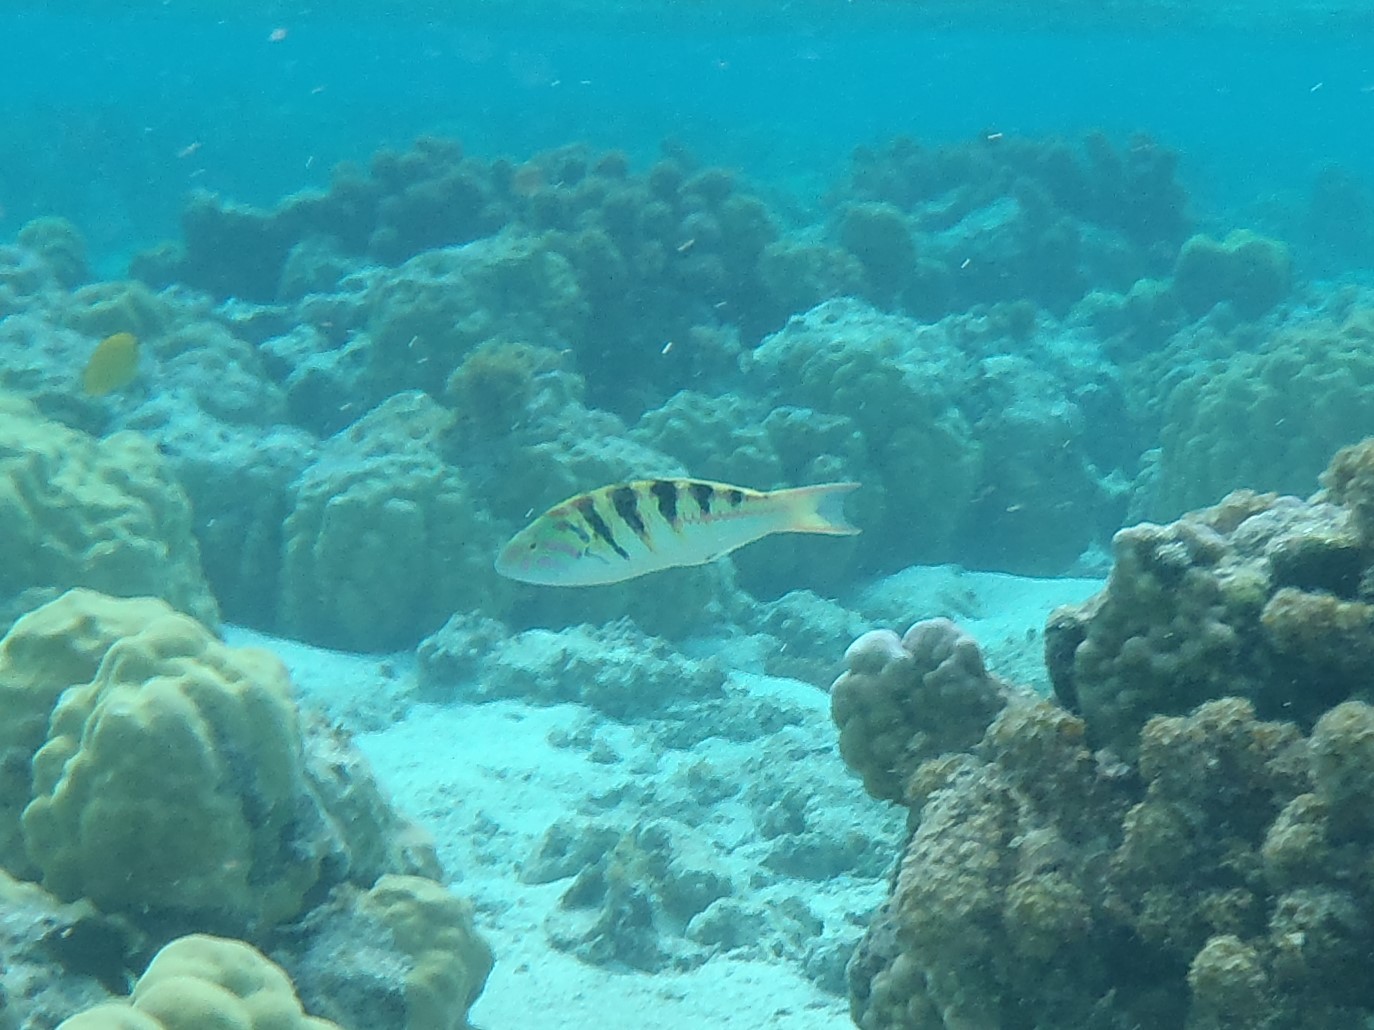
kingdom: Animalia
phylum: Chordata
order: Perciformes
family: Labridae
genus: Thalassoma
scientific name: Thalassoma hardwicke
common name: Sixbar wrasse
